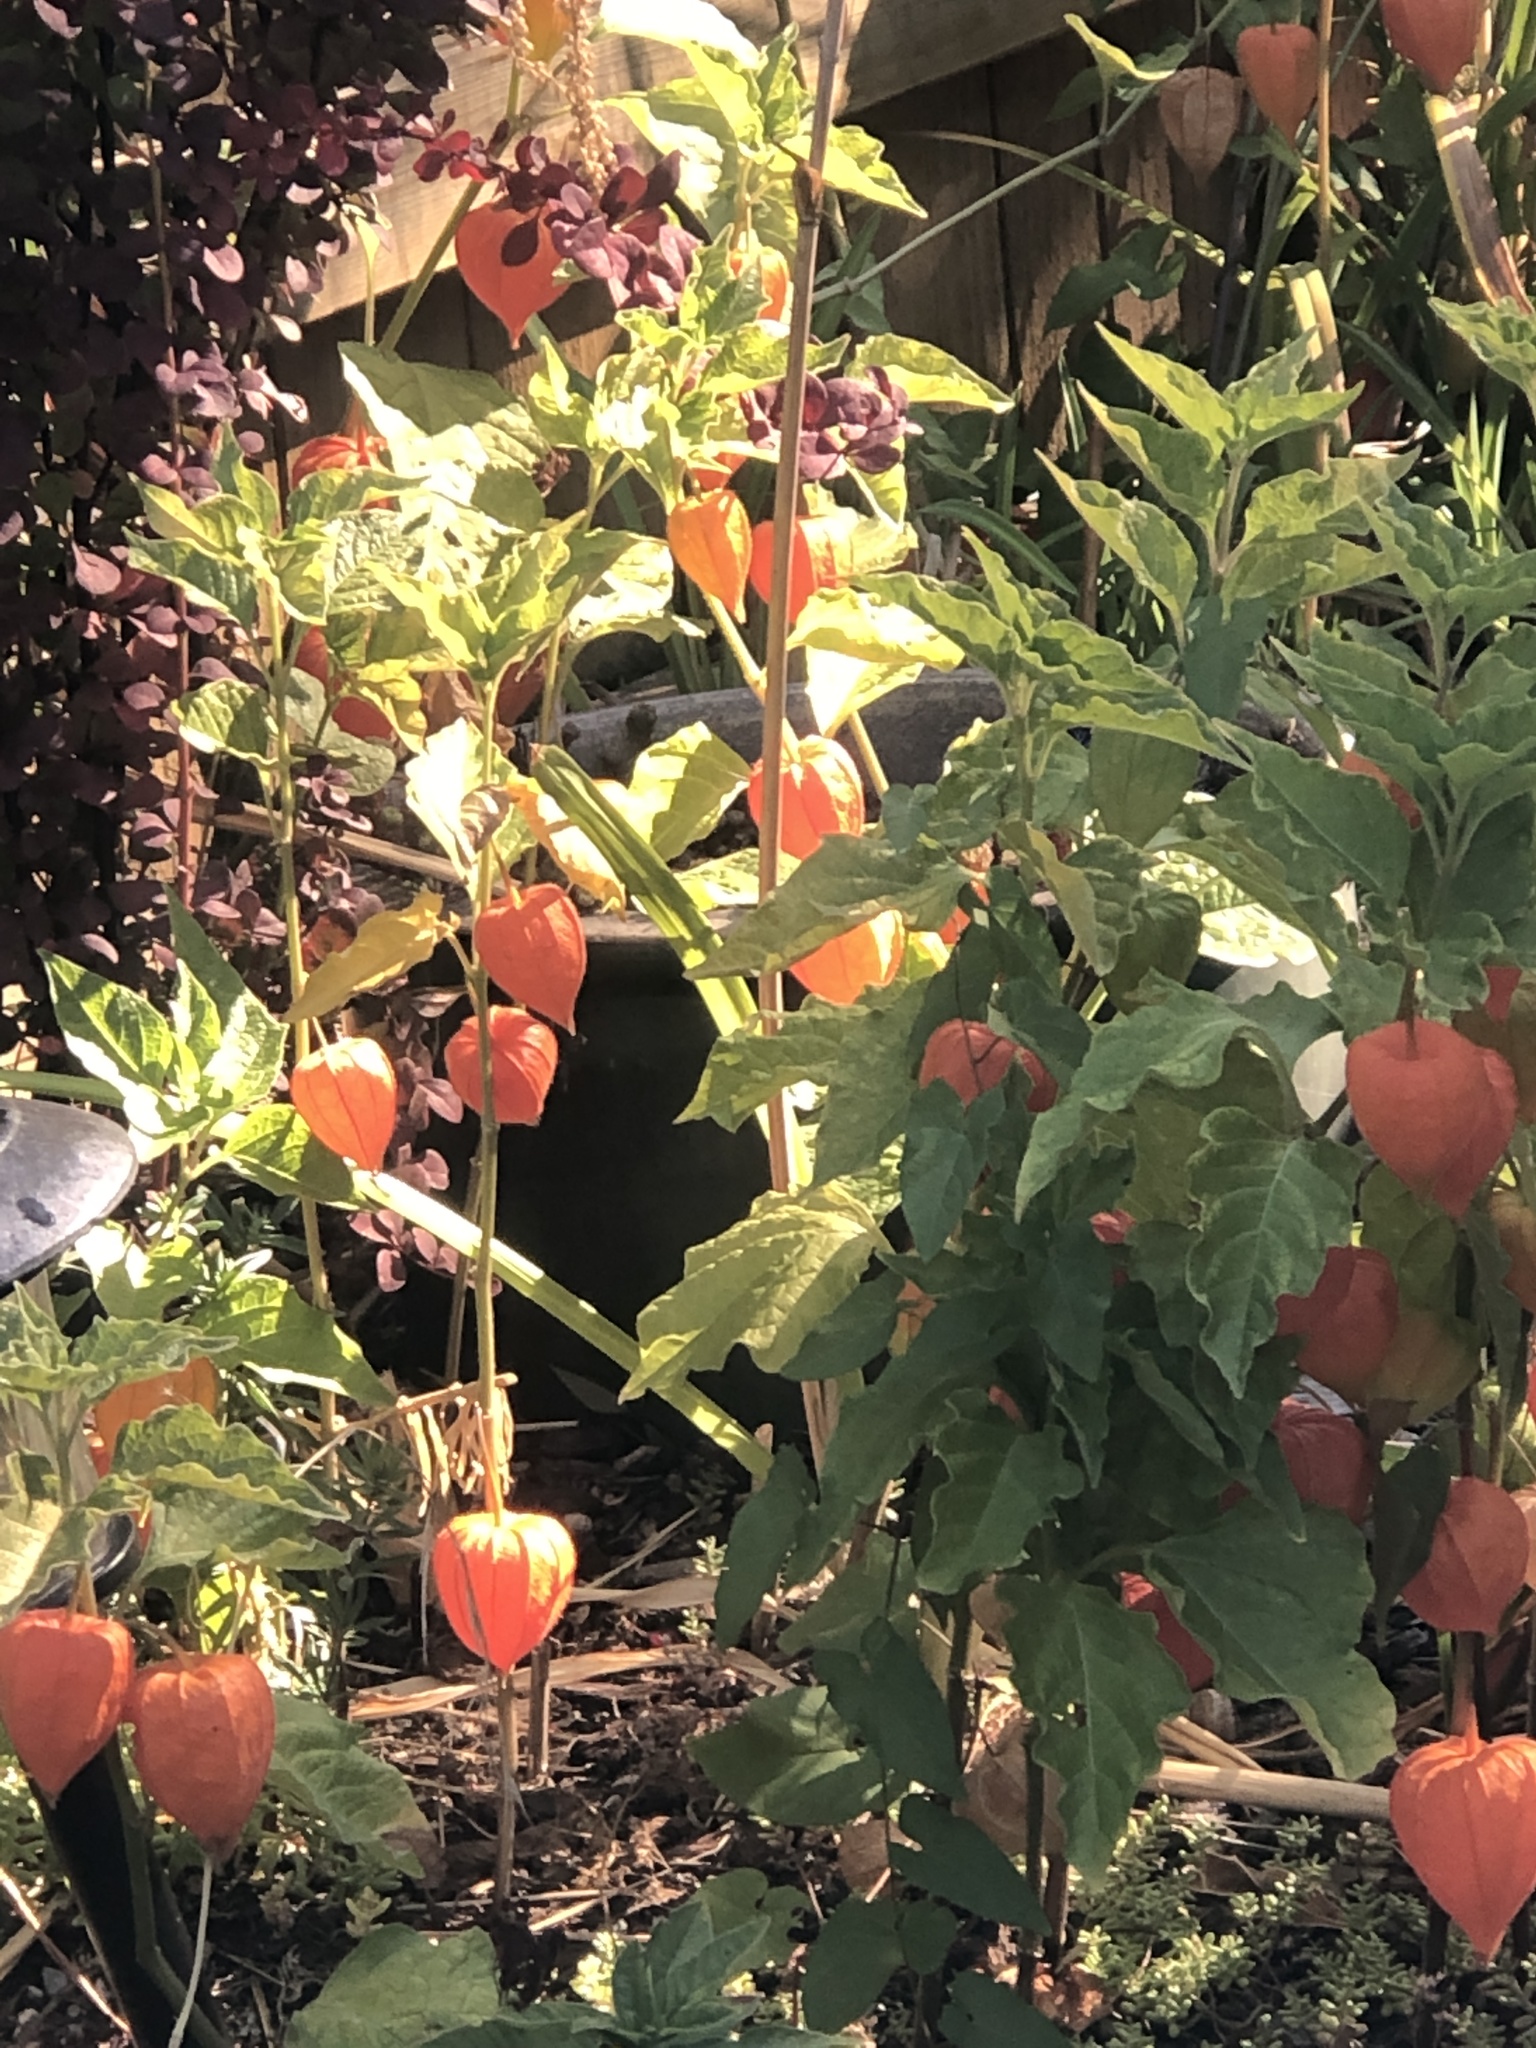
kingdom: Plantae
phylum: Tracheophyta
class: Magnoliopsida
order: Solanales
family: Solanaceae
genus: Alkekengi
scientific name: Alkekengi officinarum
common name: Japanese-lantern
